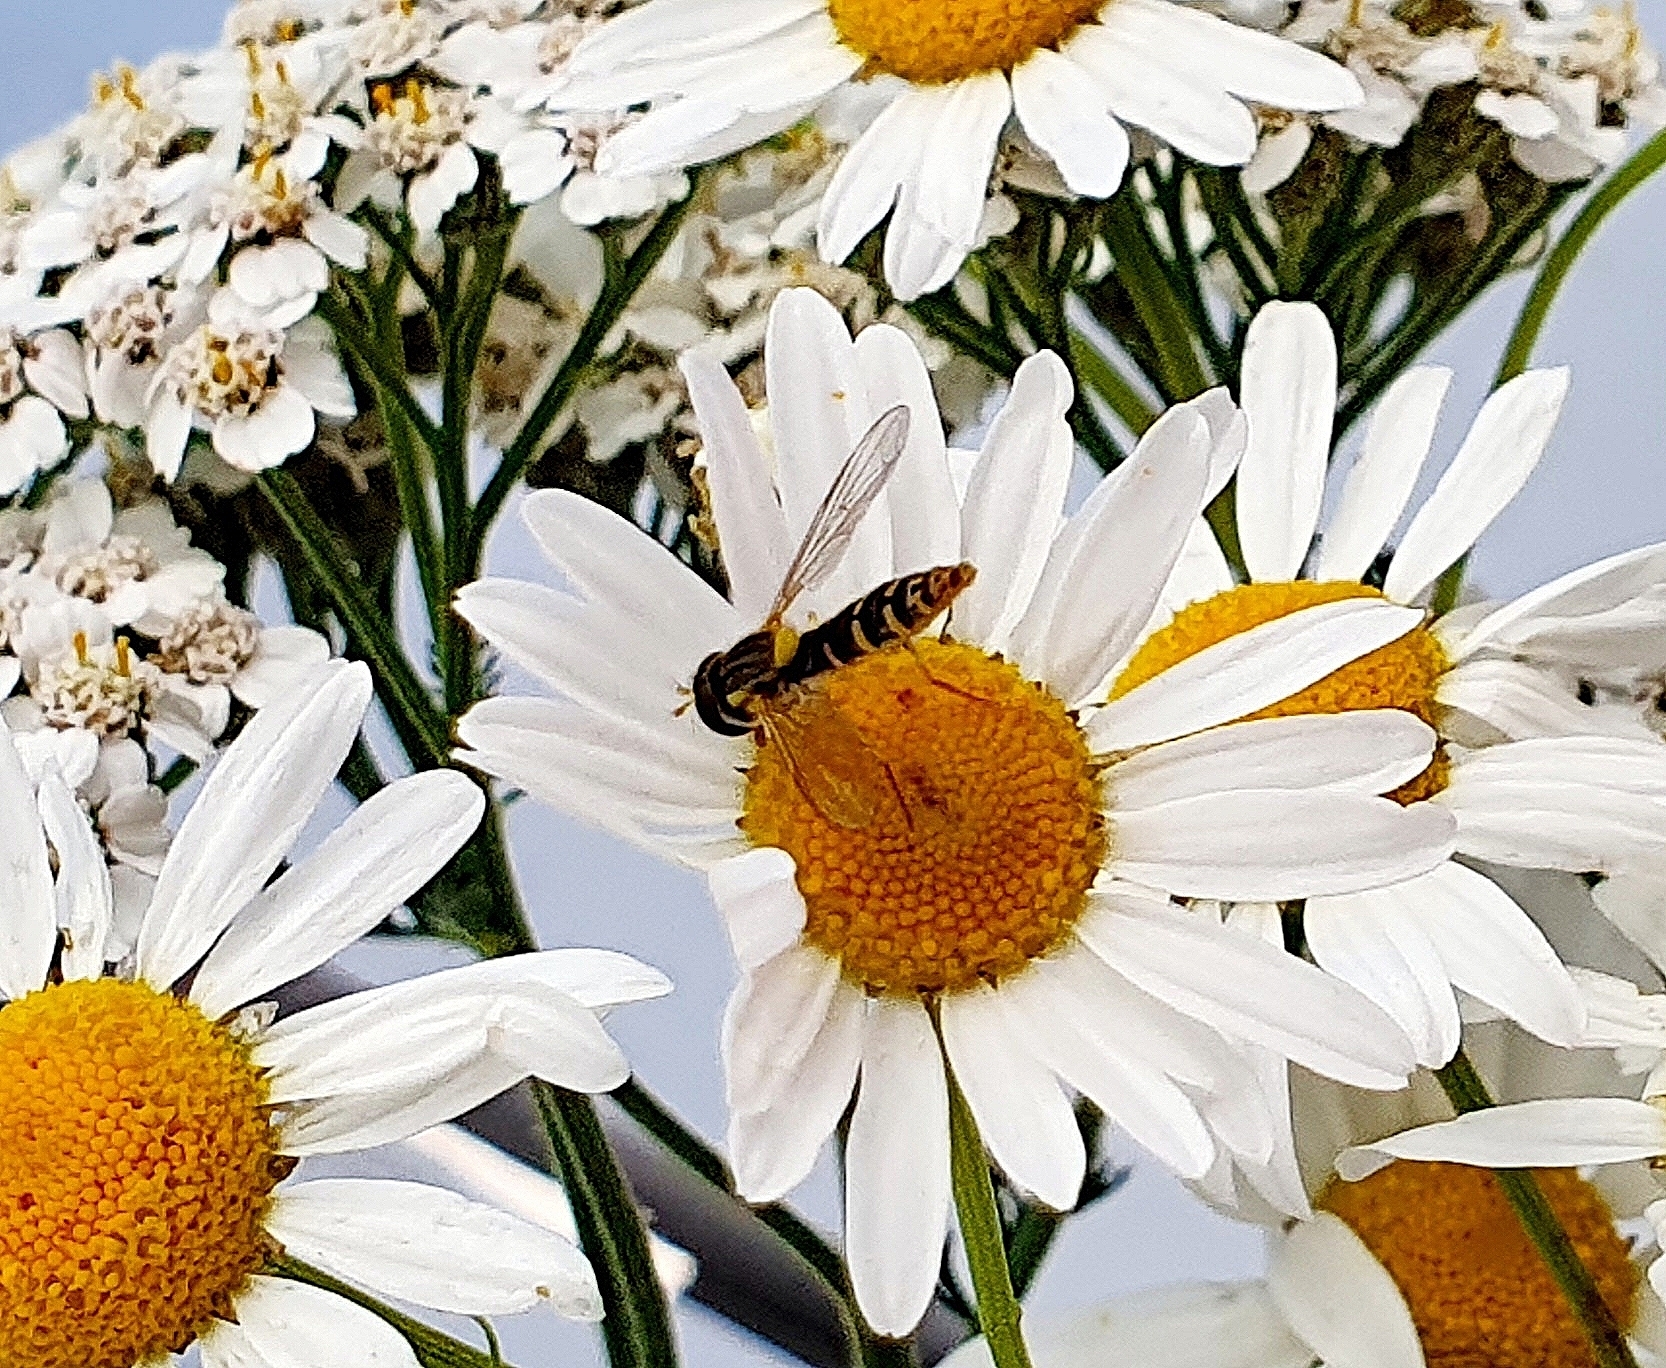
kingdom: Animalia
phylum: Arthropoda
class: Insecta
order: Diptera
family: Syrphidae
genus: Sphaerophoria
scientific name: Sphaerophoria
